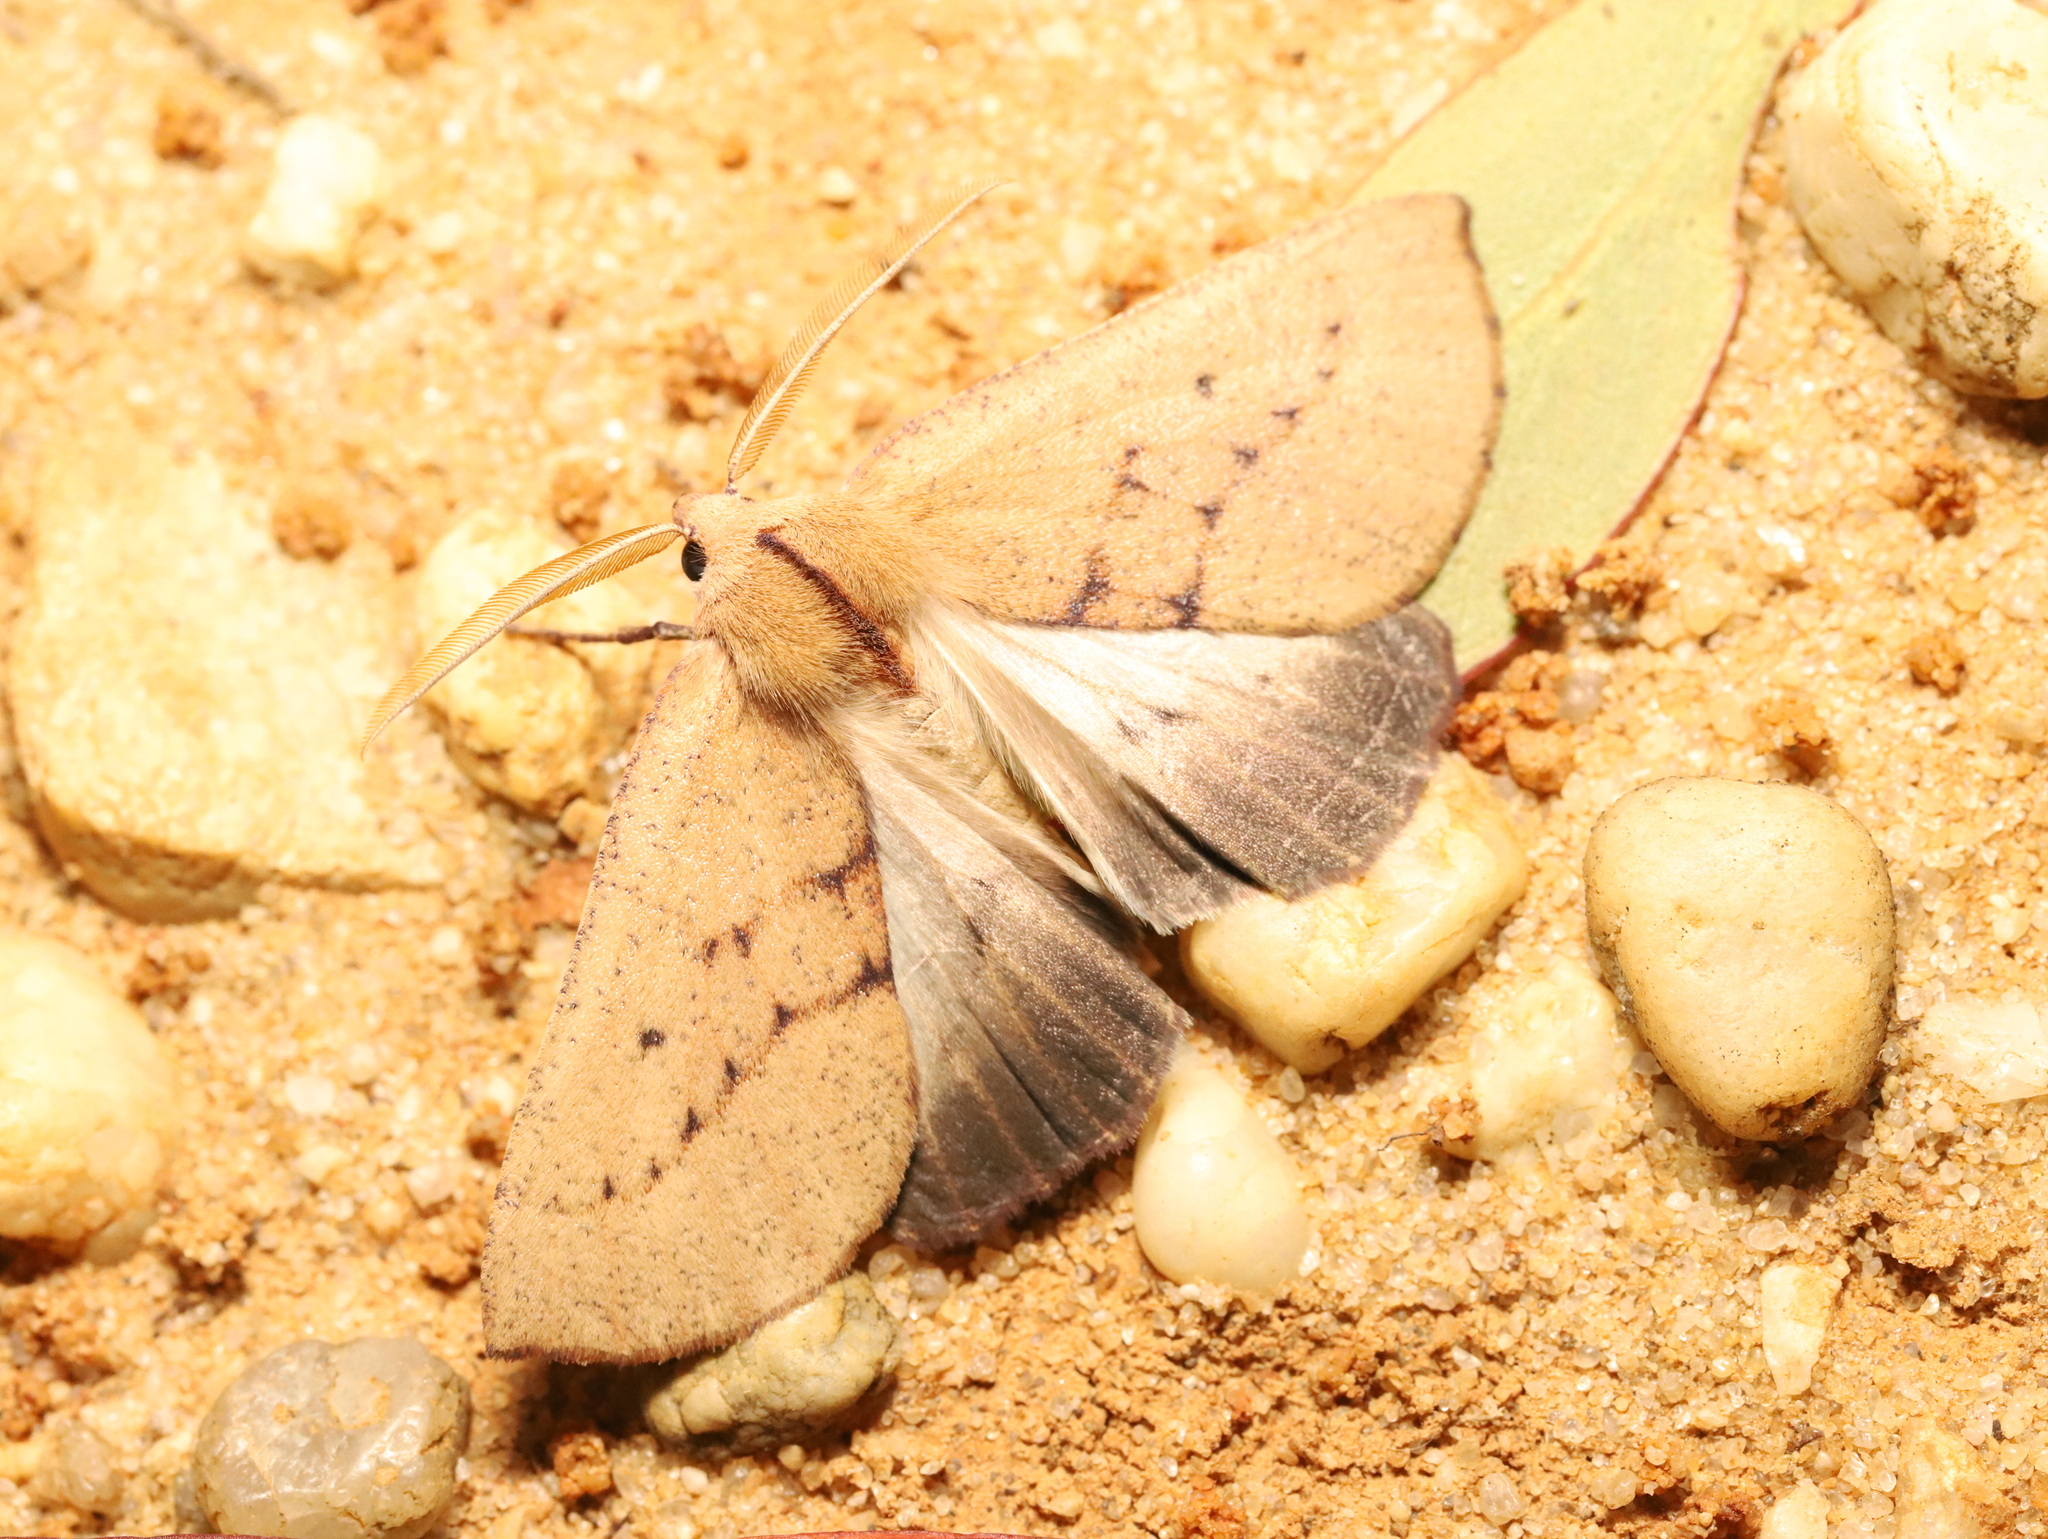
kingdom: Animalia
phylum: Arthropoda
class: Insecta
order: Lepidoptera
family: Geometridae
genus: Fisera
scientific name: Fisera hypoleuca
